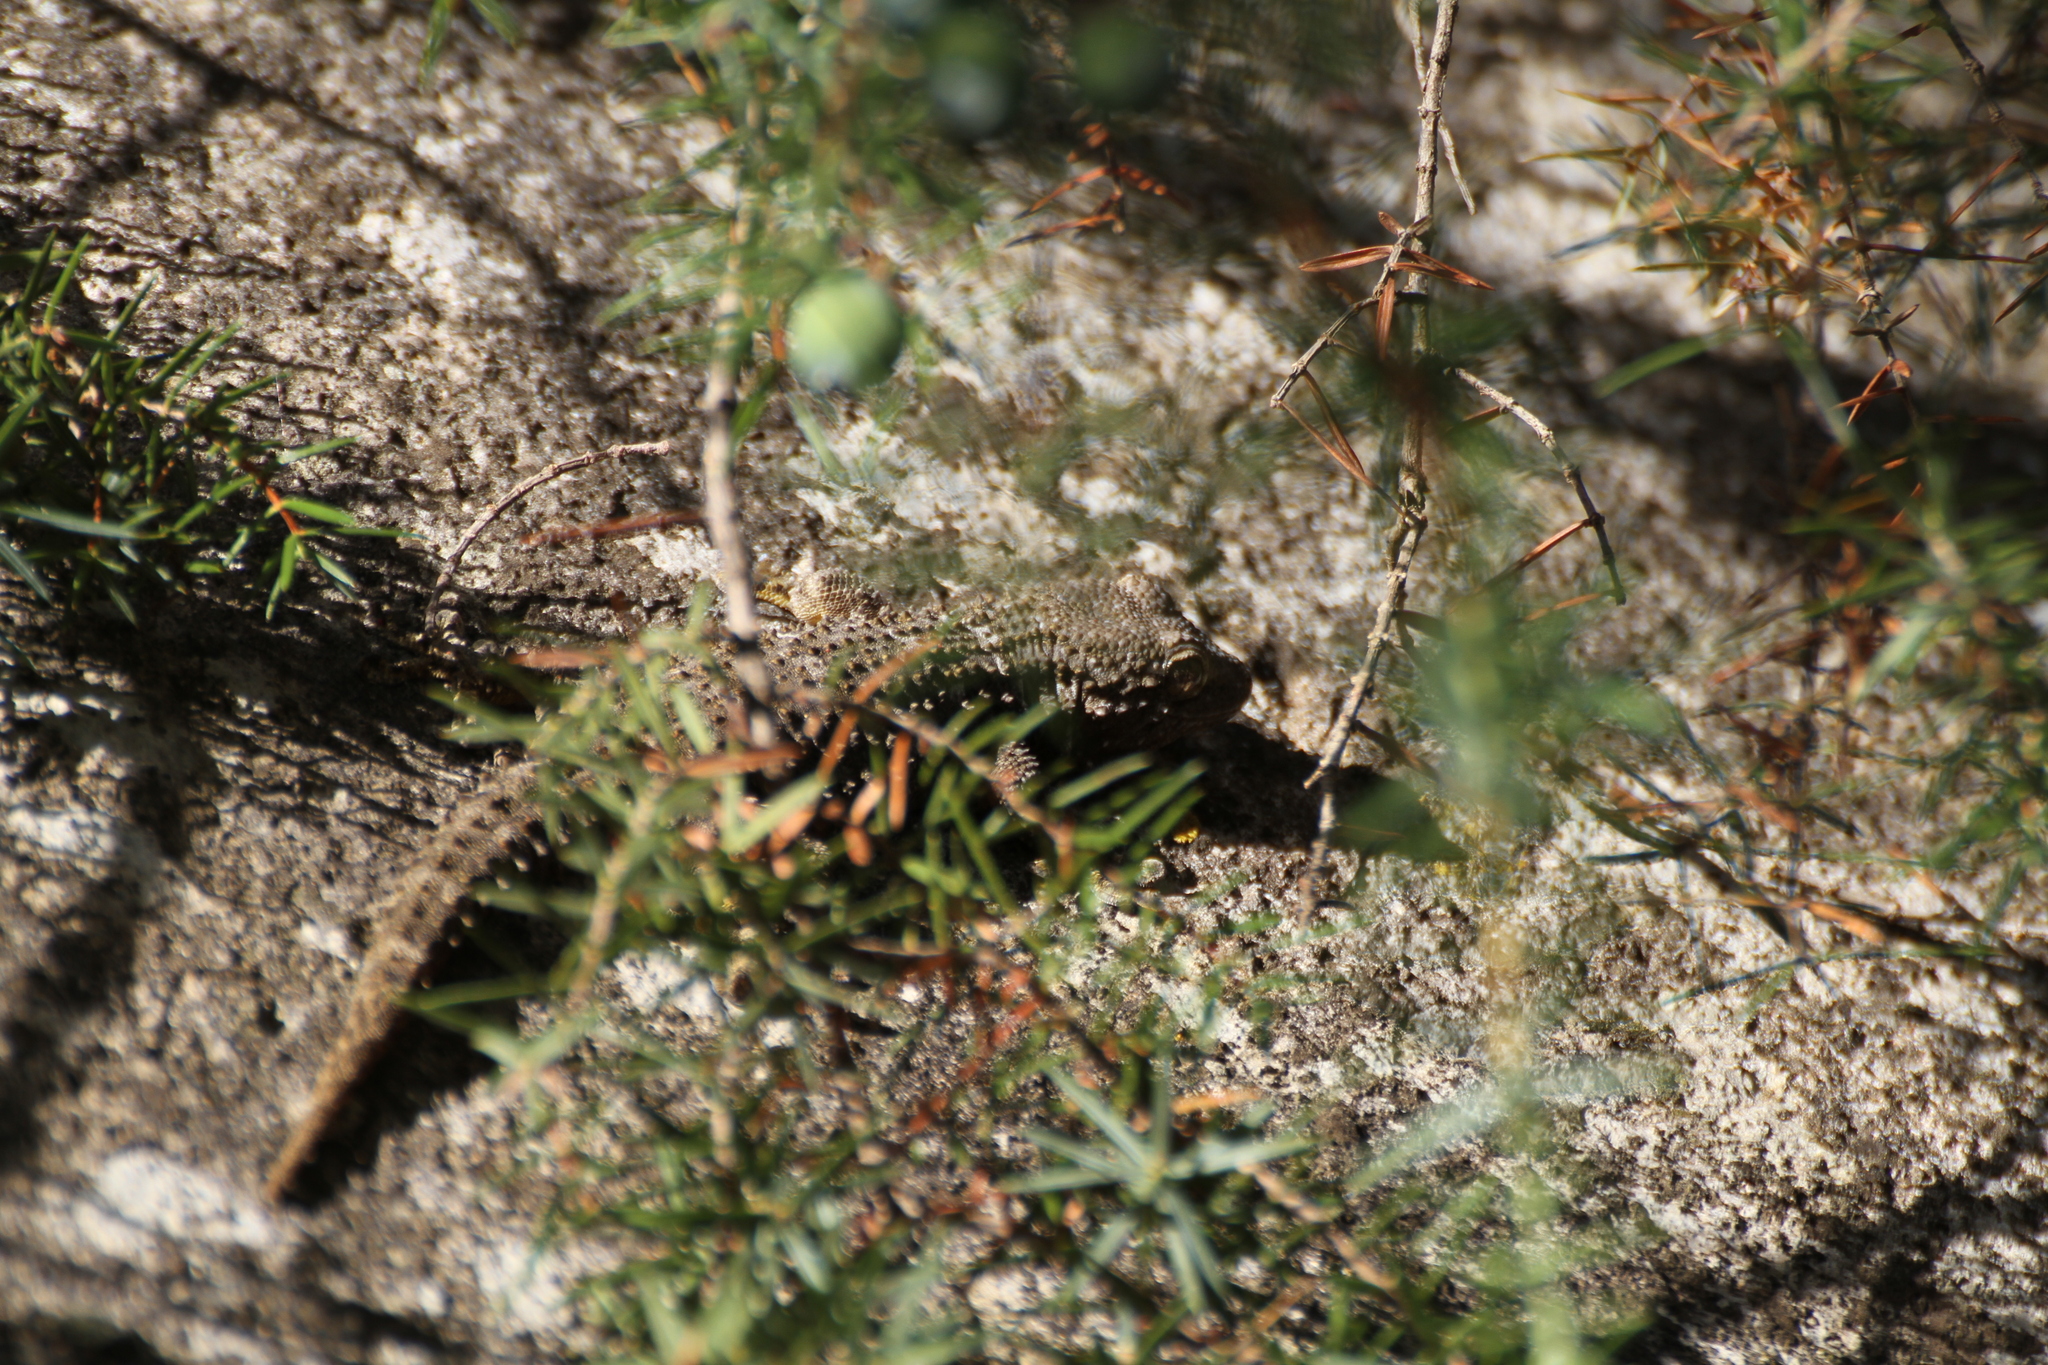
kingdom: Animalia
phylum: Chordata
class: Squamata
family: Phyllodactylidae
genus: Tarentola
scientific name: Tarentola mauritanica
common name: Moorish gecko
